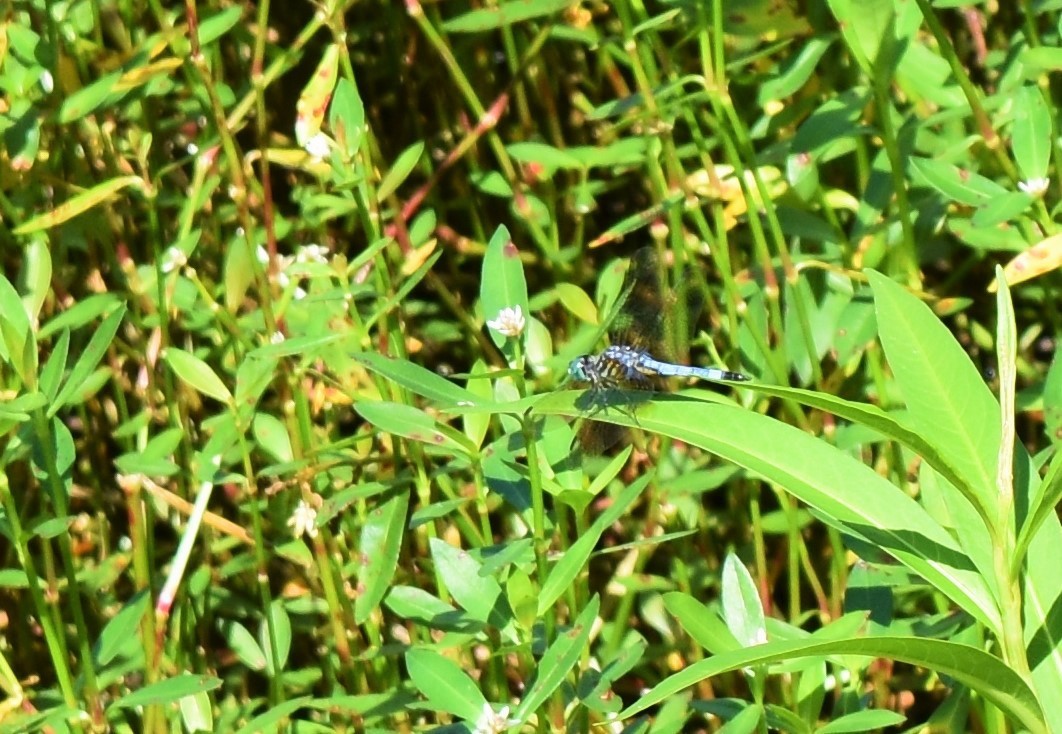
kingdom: Animalia
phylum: Arthropoda
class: Insecta
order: Odonata
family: Libellulidae
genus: Pachydiplax
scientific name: Pachydiplax longipennis
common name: Blue dasher
